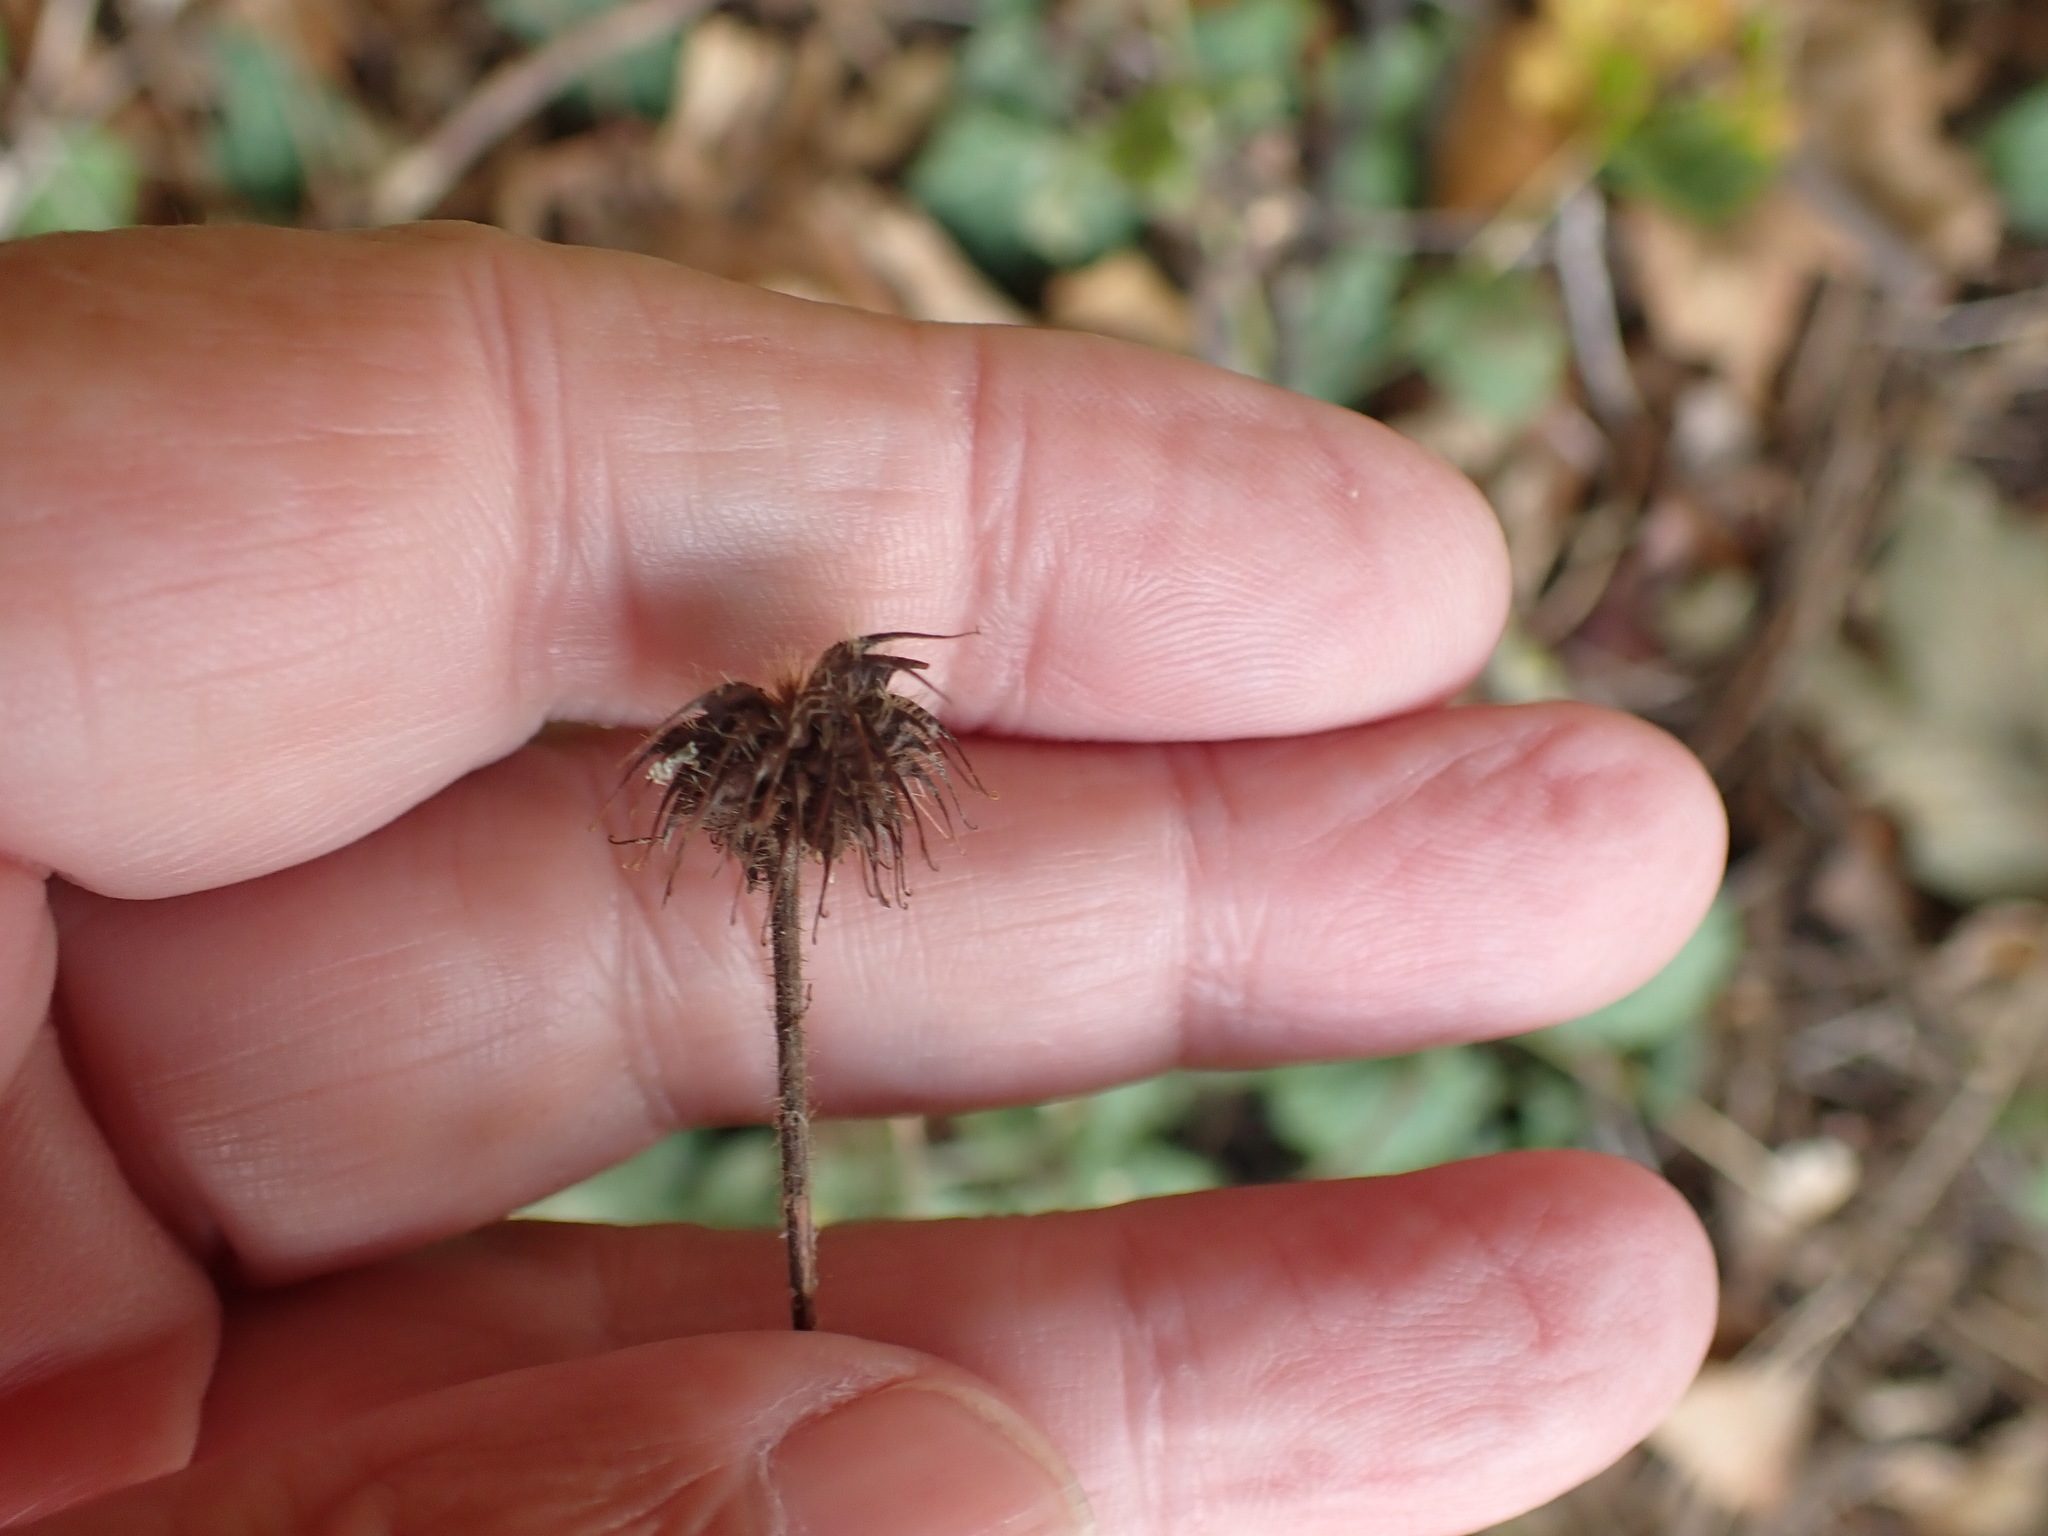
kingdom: Plantae
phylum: Tracheophyta
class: Magnoliopsida
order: Rosales
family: Rosaceae
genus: Geum
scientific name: Geum urbanum
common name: Wood avens
